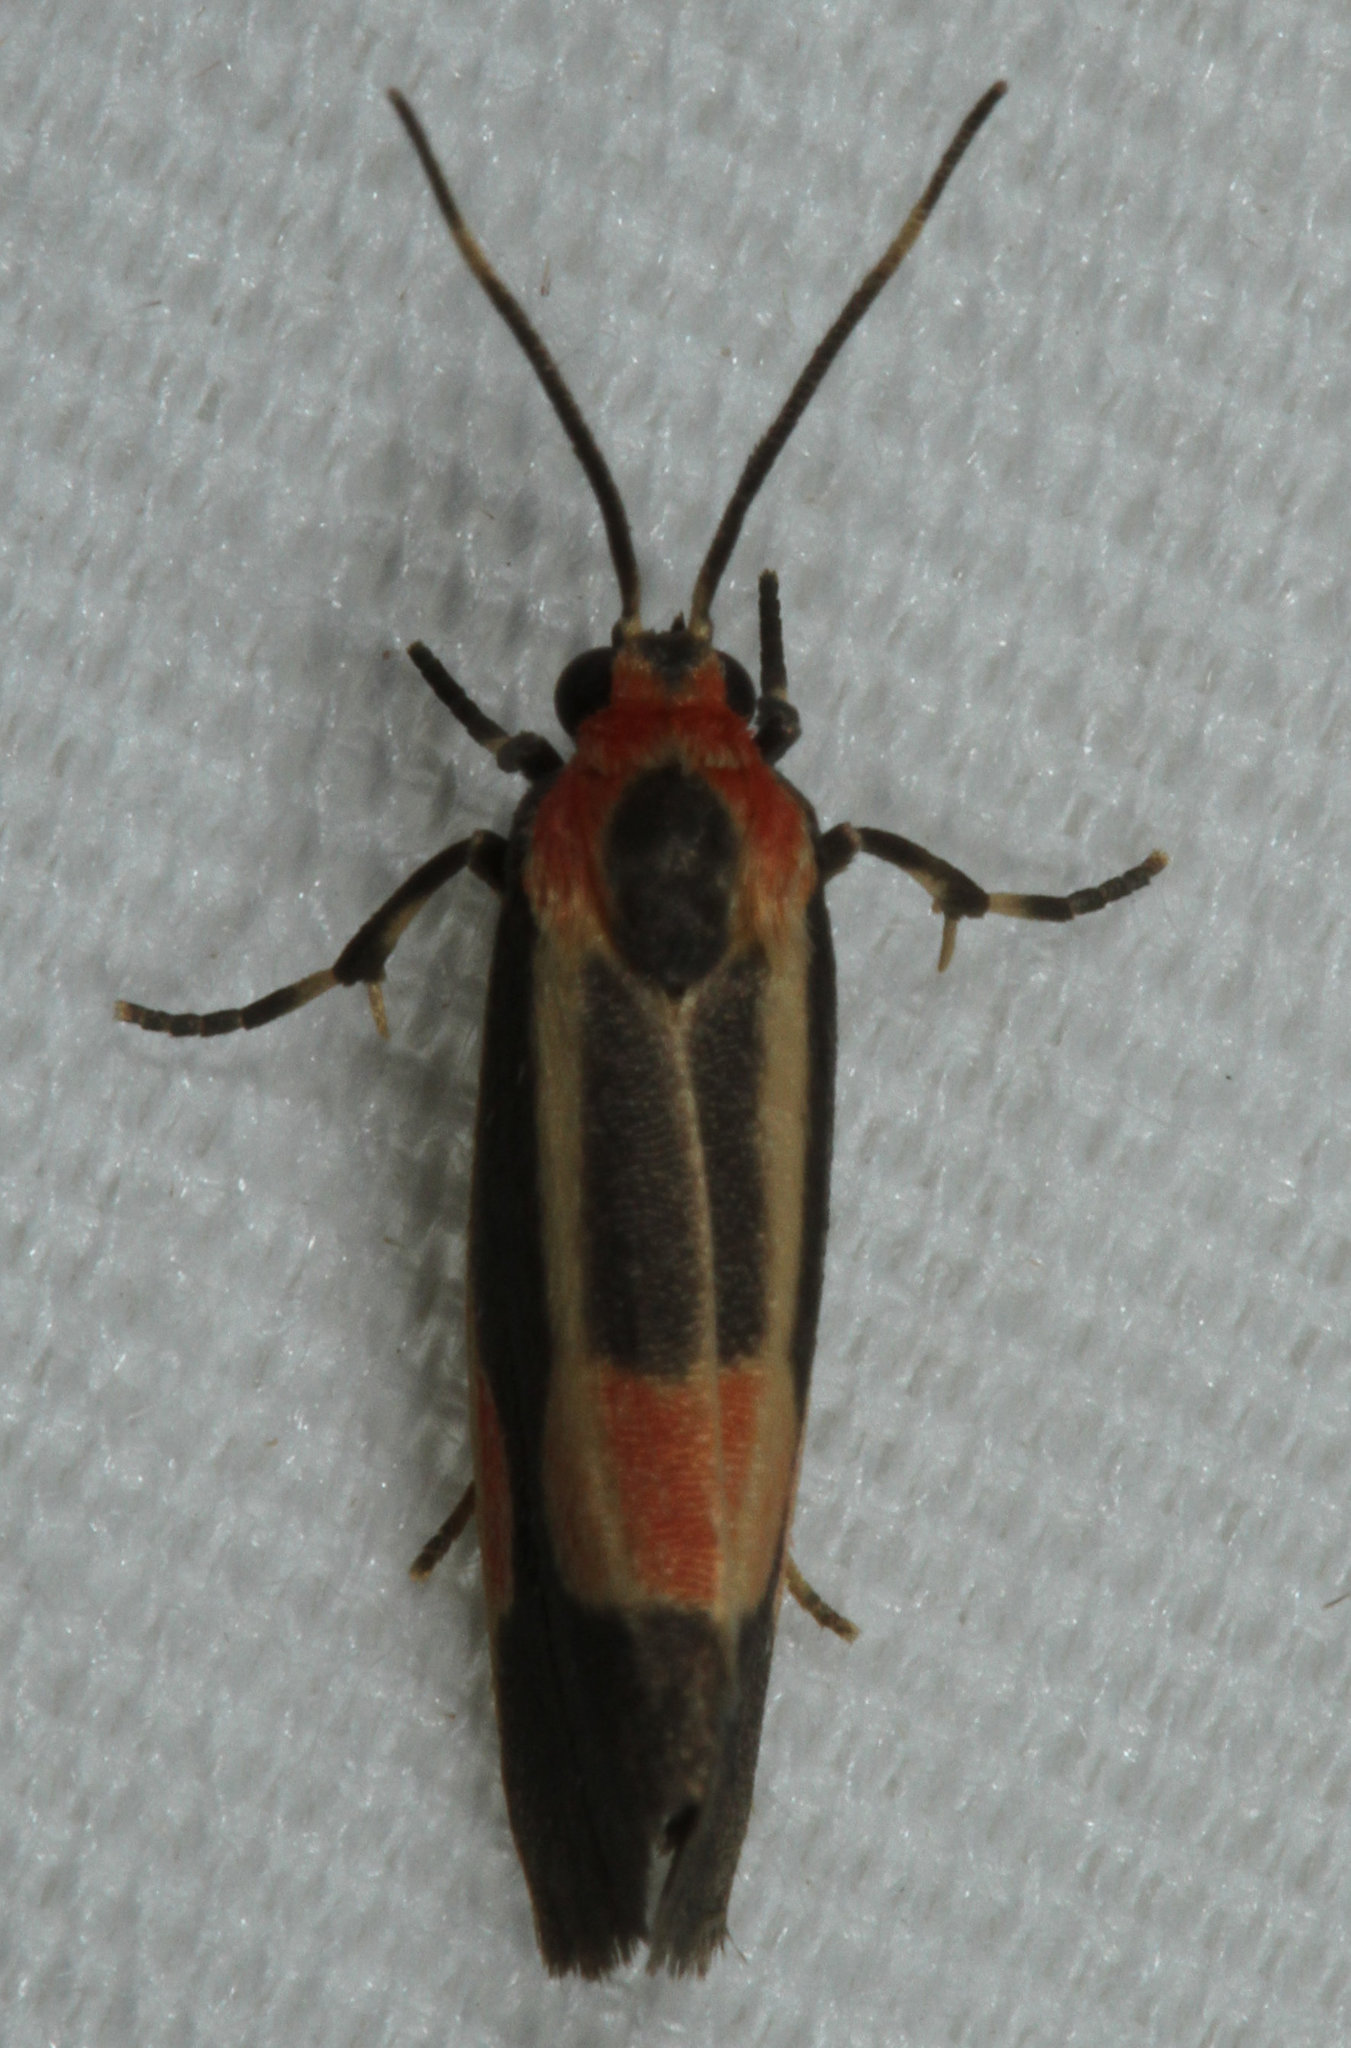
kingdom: Animalia
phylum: Arthropoda
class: Insecta
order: Lepidoptera
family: Erebidae
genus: Cisthene
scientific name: Cisthene packardii
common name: Packard's lichen moth
